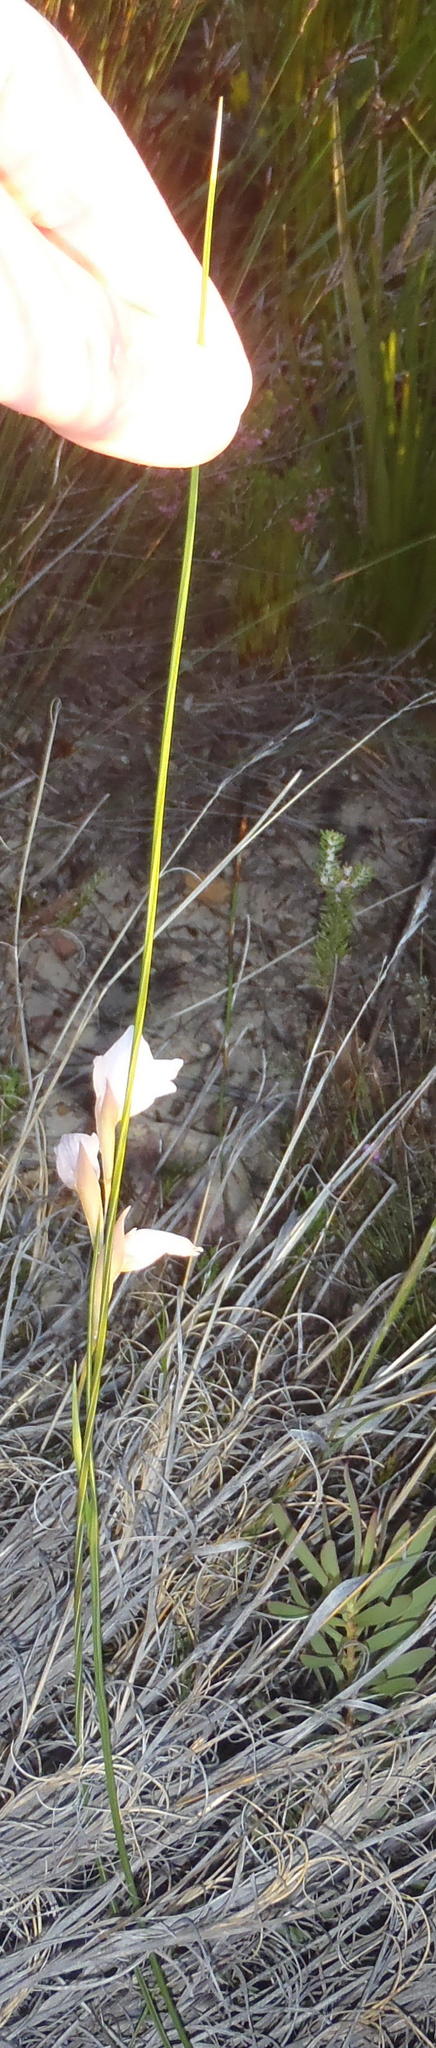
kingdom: Plantae
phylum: Tracheophyta
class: Liliopsida
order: Asparagales
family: Iridaceae
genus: Gladiolus
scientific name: Gladiolus patersoniae
